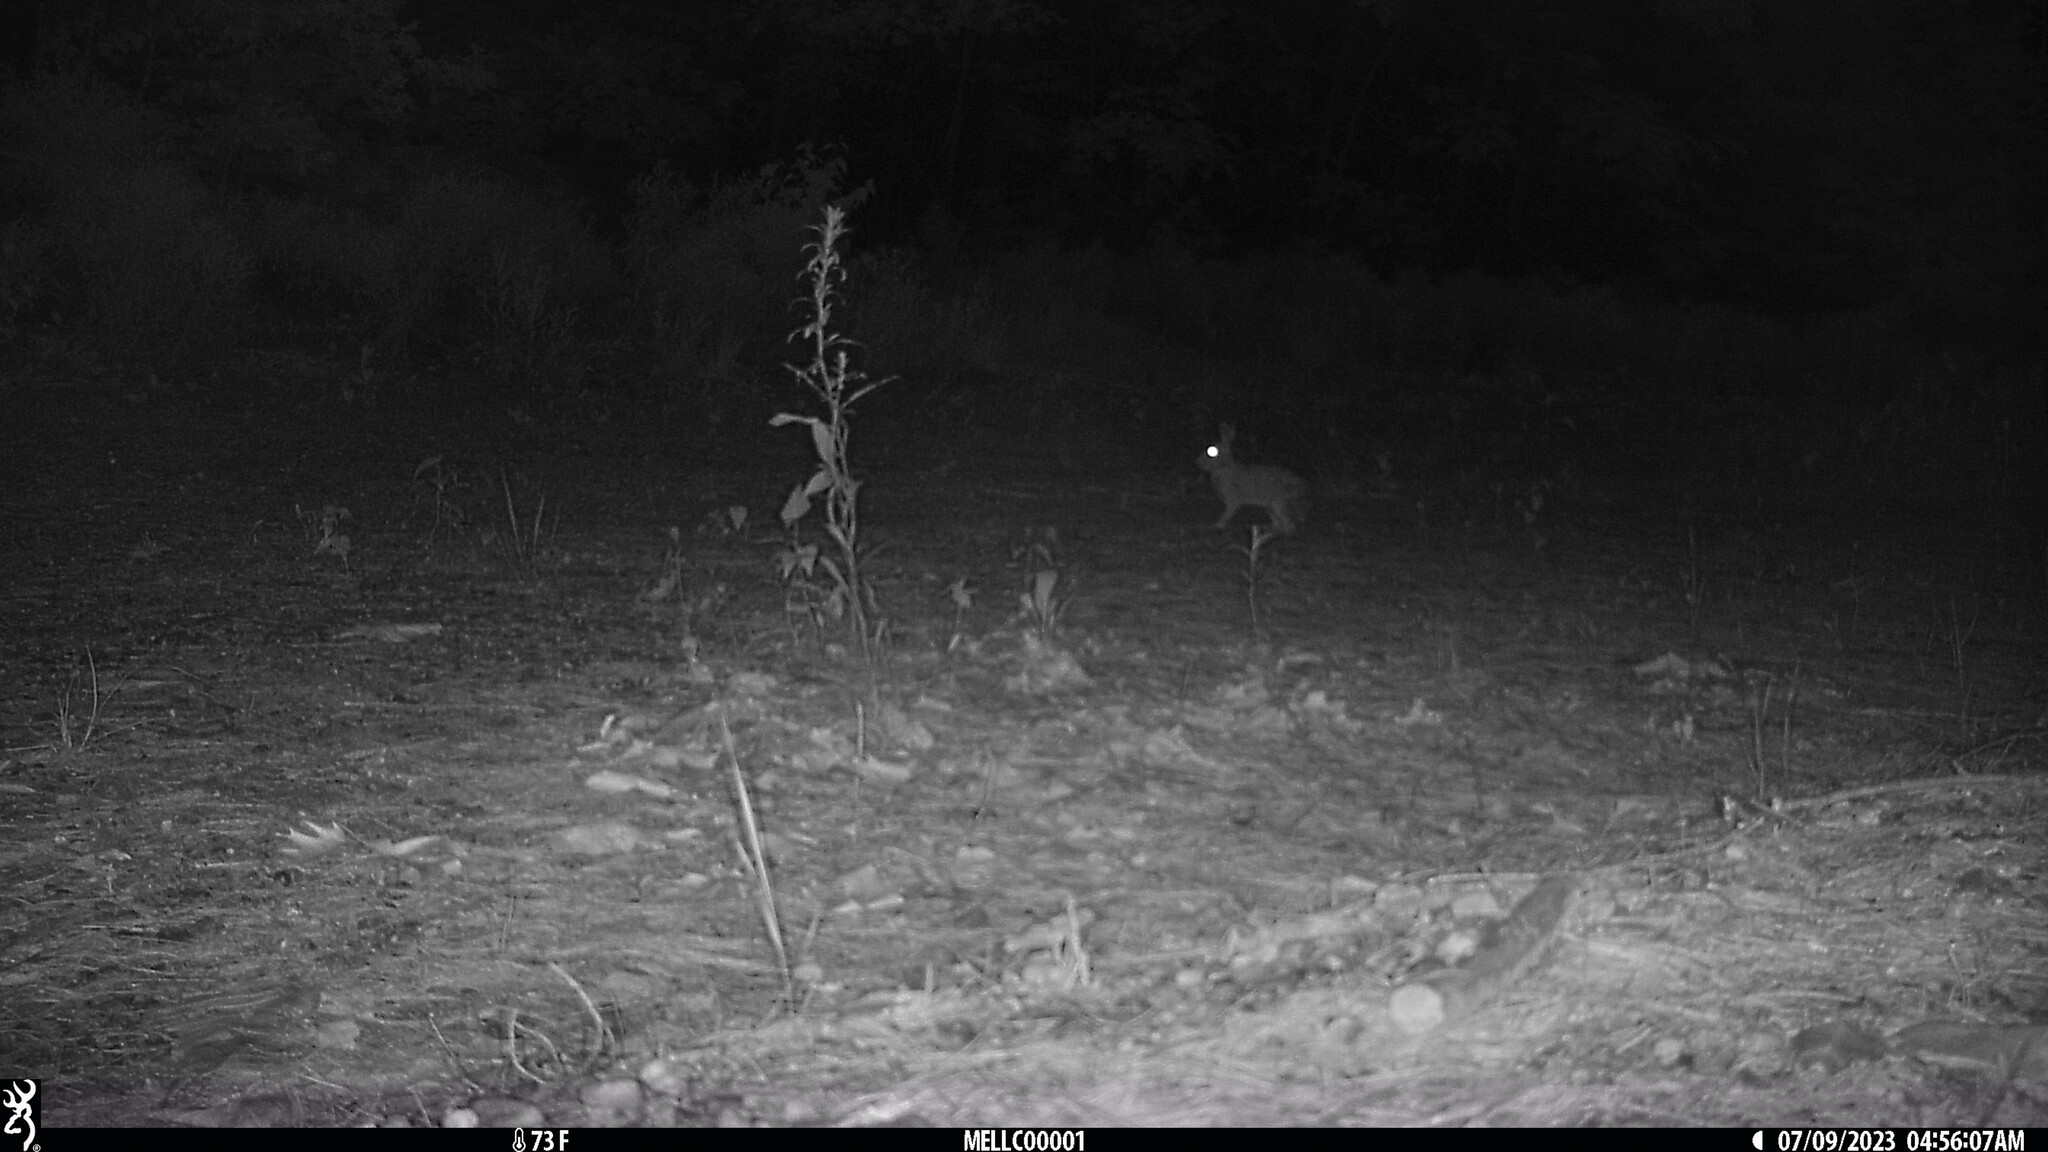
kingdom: Animalia
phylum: Chordata
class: Mammalia
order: Lagomorpha
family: Leporidae
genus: Sylvilagus
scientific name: Sylvilagus floridanus
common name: Eastern cottontail
